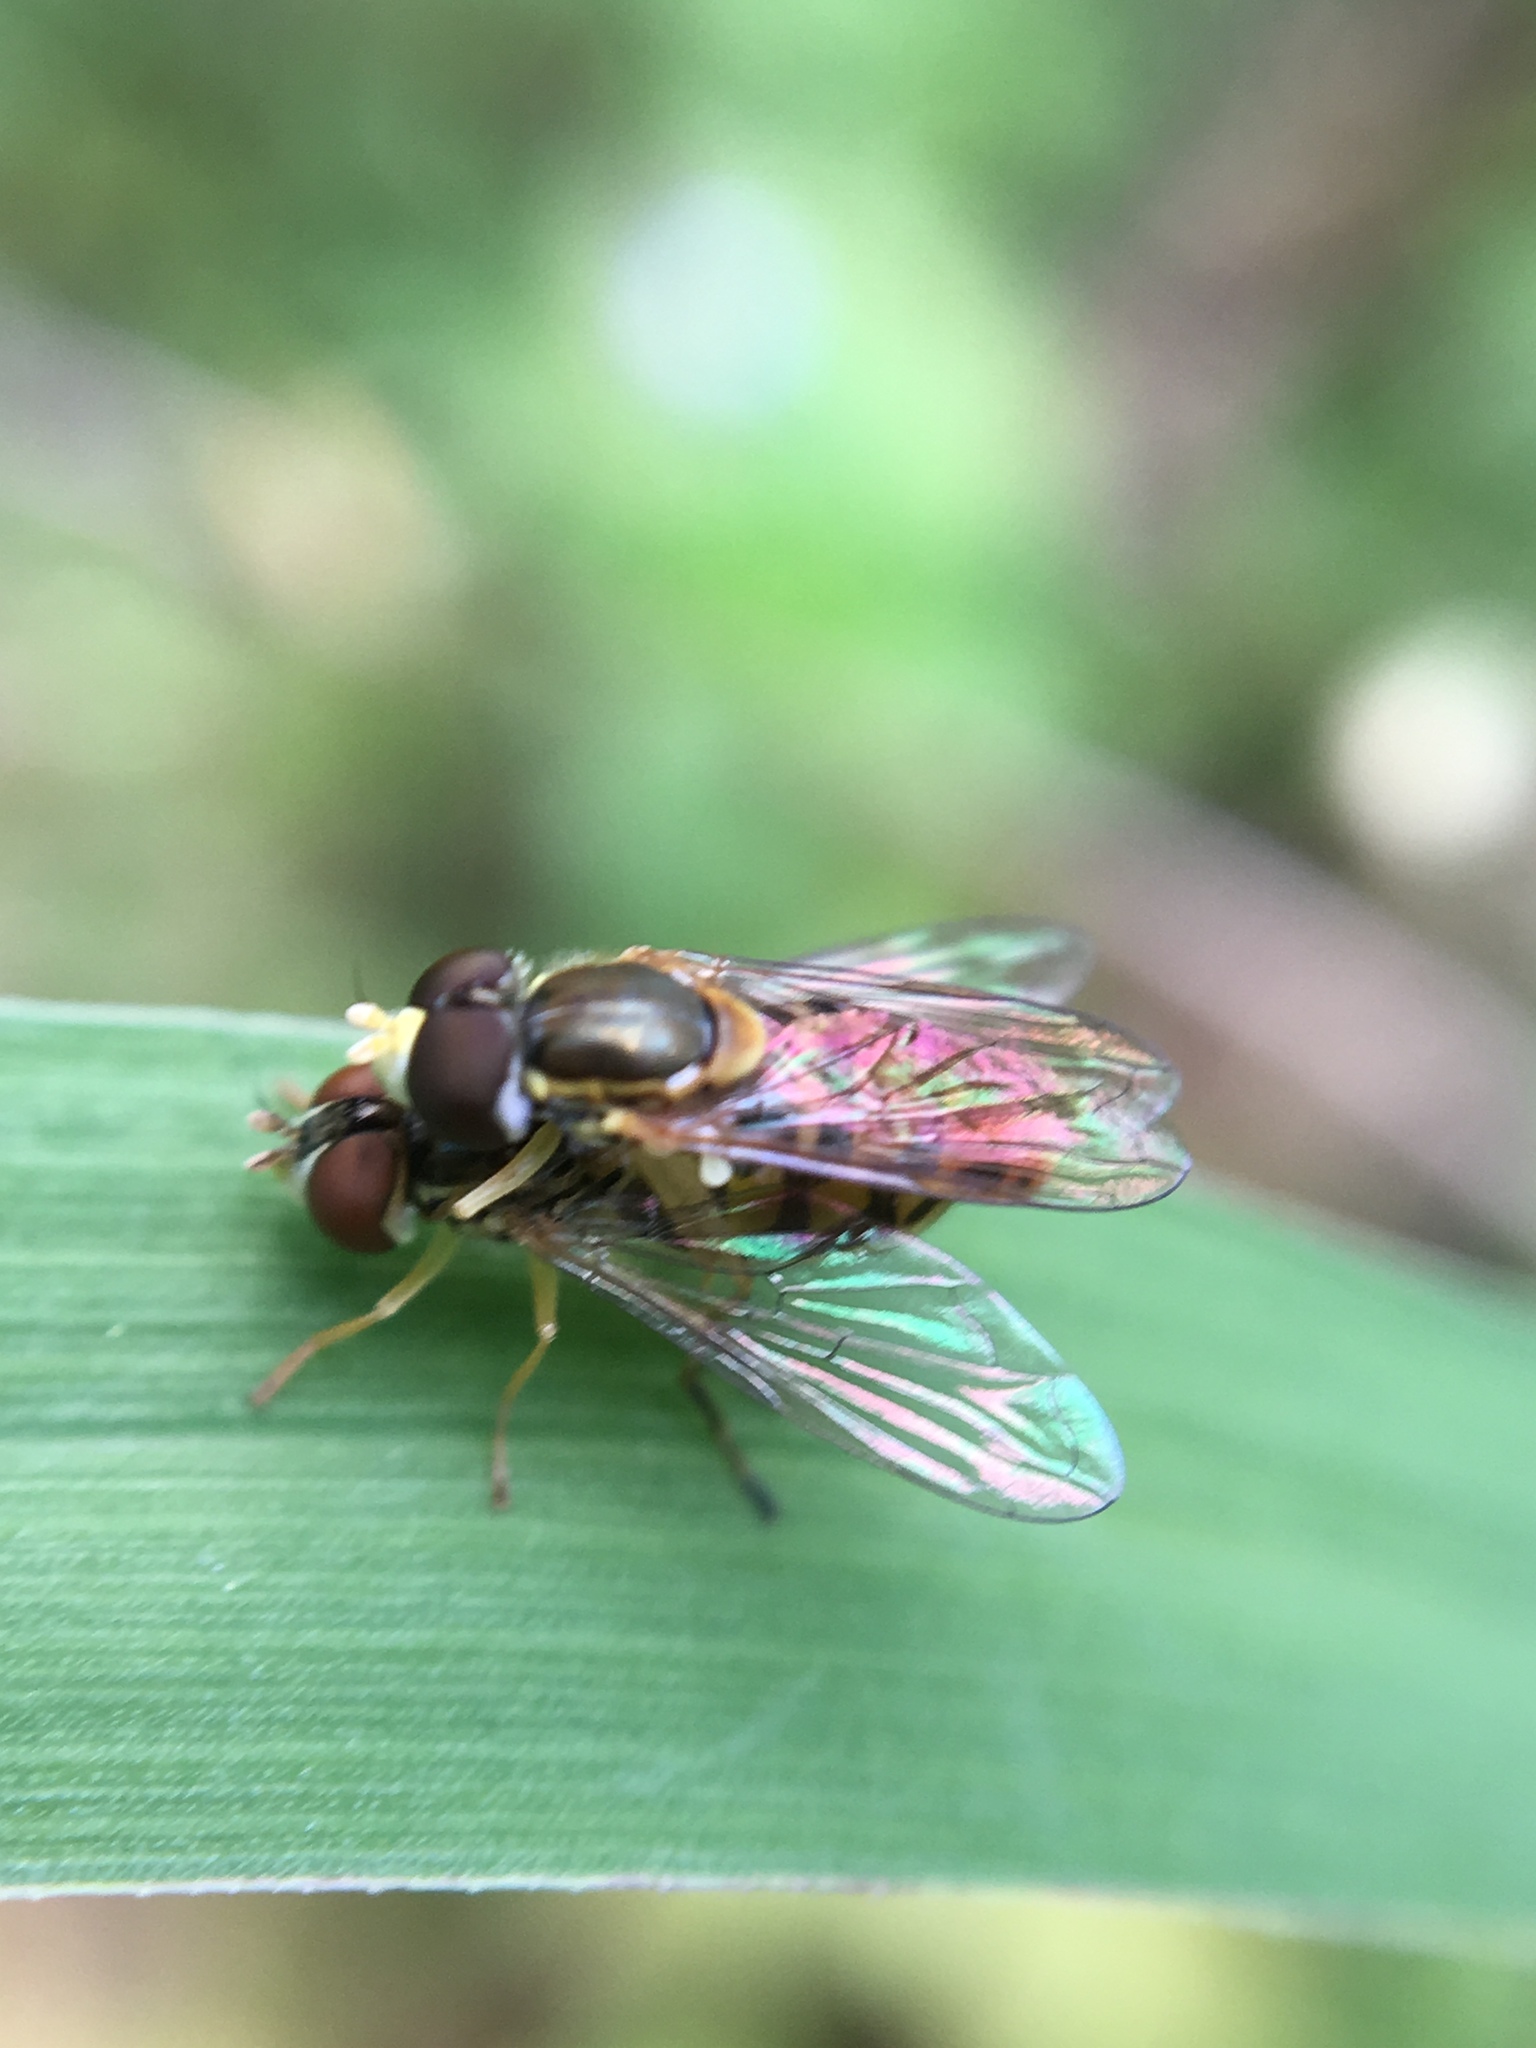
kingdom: Animalia
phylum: Arthropoda
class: Insecta
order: Diptera
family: Syrphidae
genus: Toxomerus
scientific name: Toxomerus marginatus
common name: Syrphid fly
